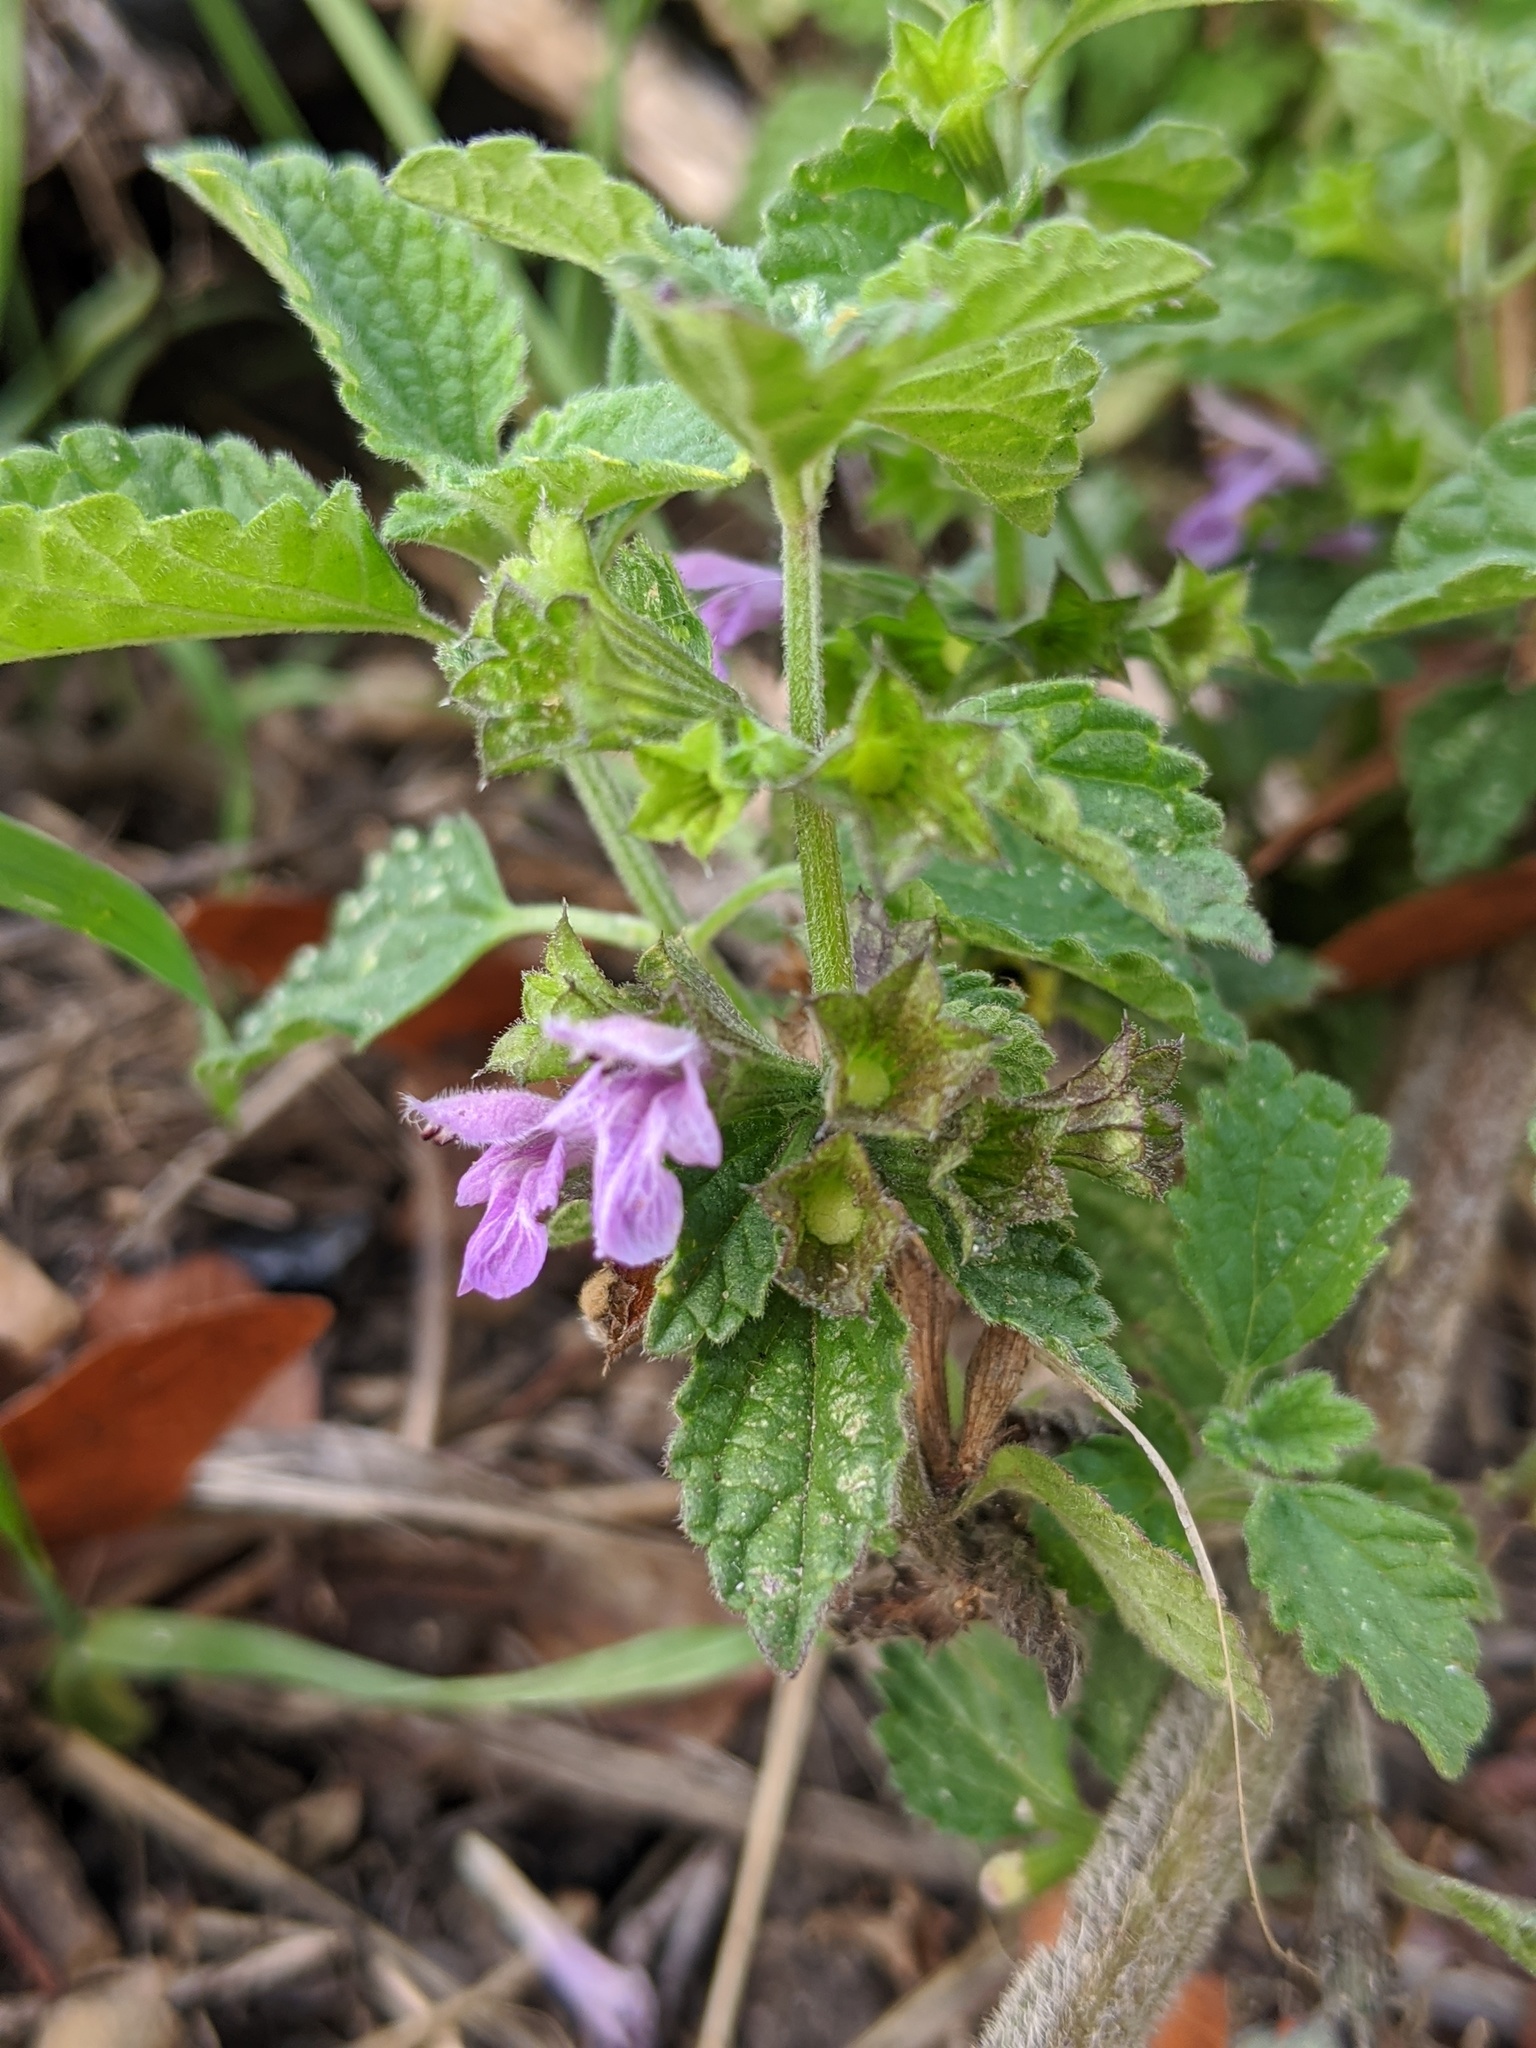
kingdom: Plantae
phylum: Tracheophyta
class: Magnoliopsida
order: Lamiales
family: Lamiaceae
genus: Ballota
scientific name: Ballota nigra
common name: Black horehound
